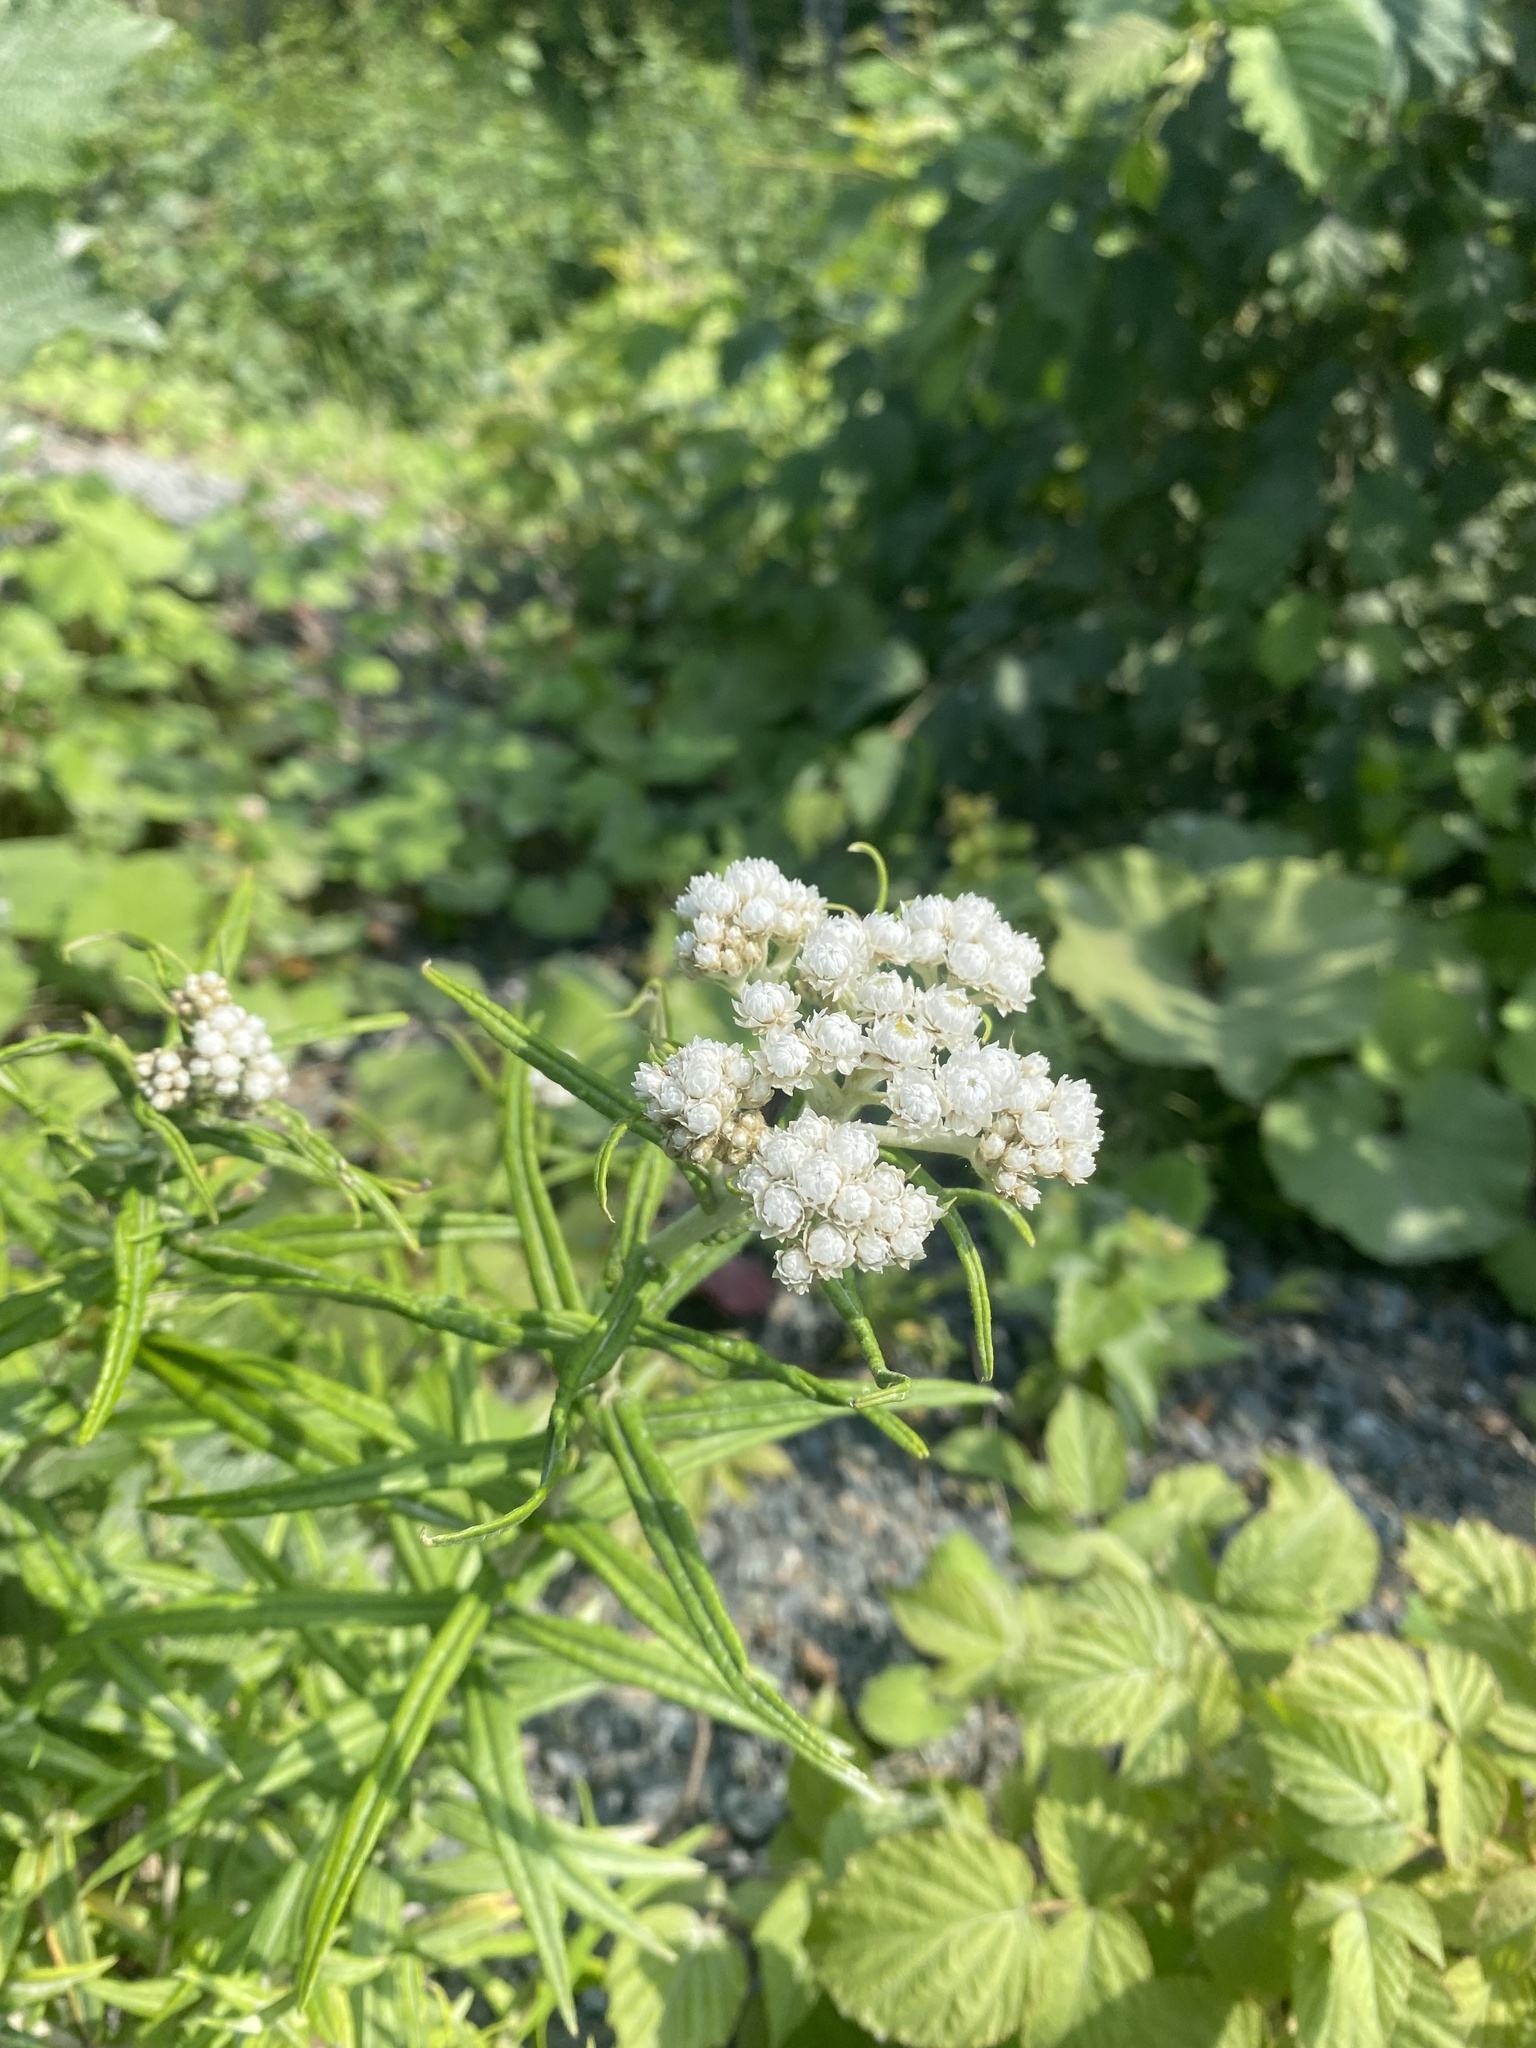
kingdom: Plantae
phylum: Tracheophyta
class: Magnoliopsida
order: Asterales
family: Asteraceae
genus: Anaphalis
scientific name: Anaphalis margaritacea
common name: Pearly everlasting
